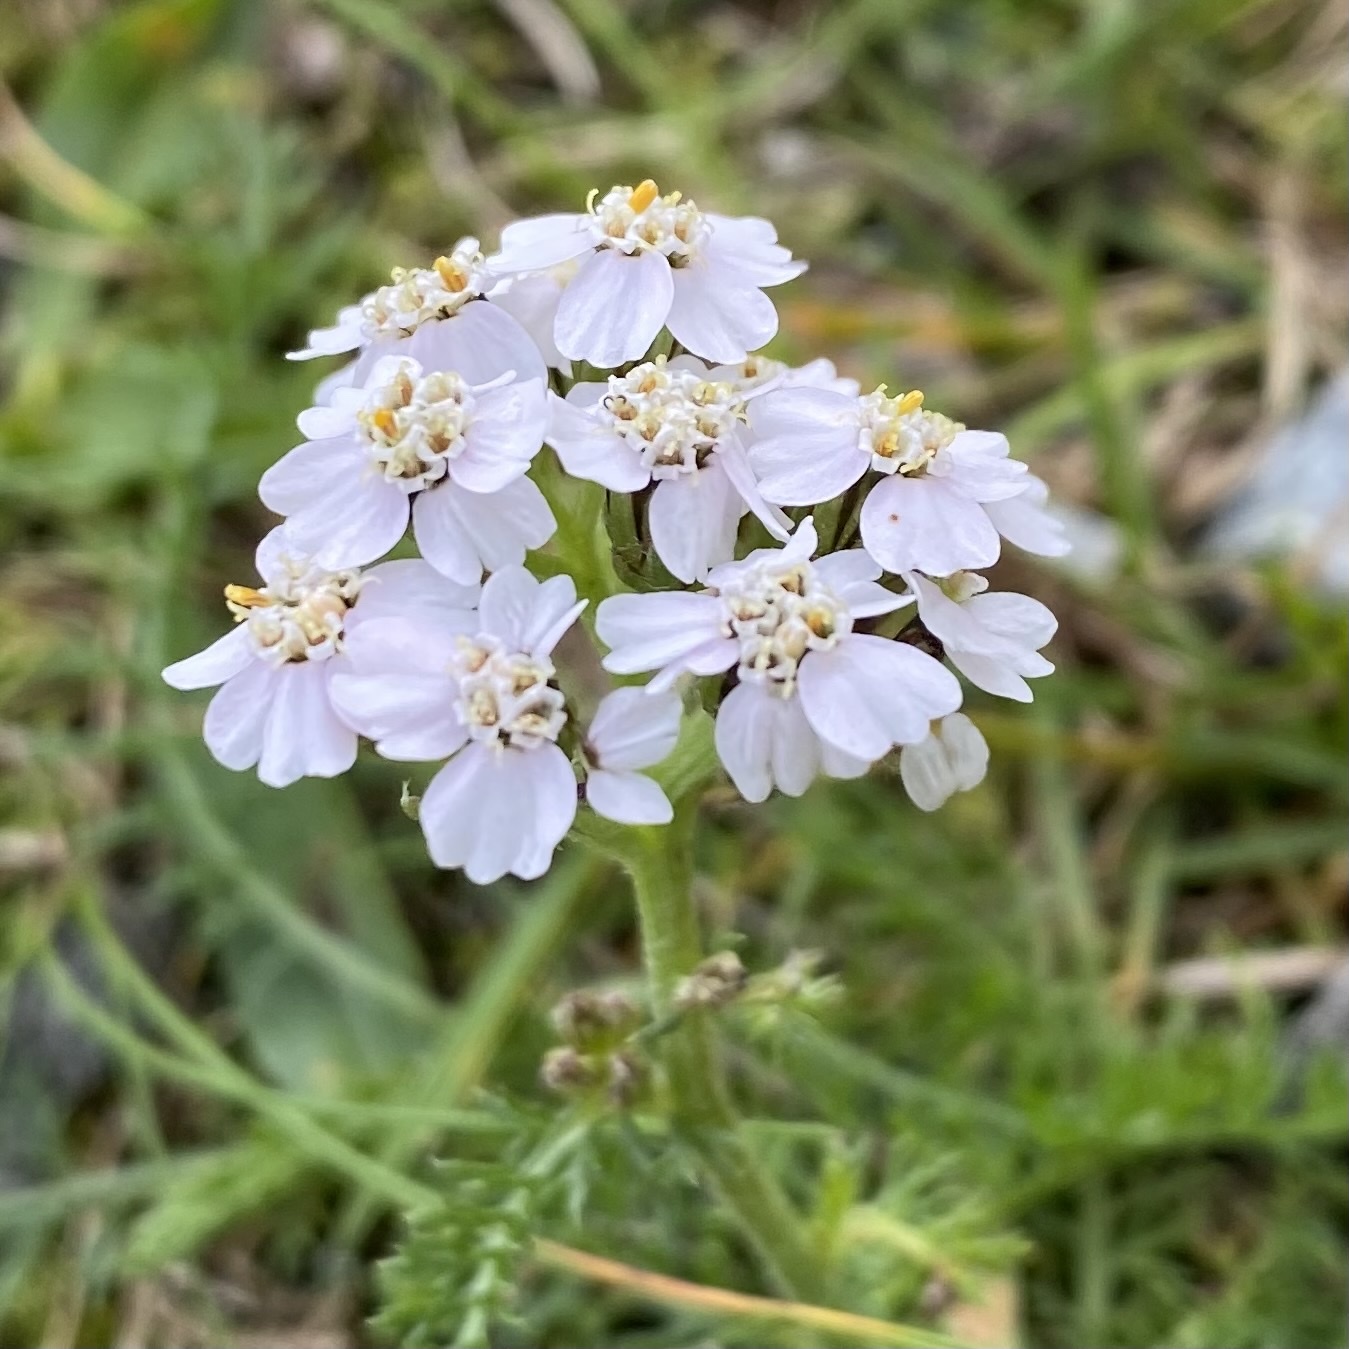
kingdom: Plantae
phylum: Tracheophyta
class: Magnoliopsida
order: Asterales
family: Asteraceae
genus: Achillea
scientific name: Achillea millefolium
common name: Yarrow
